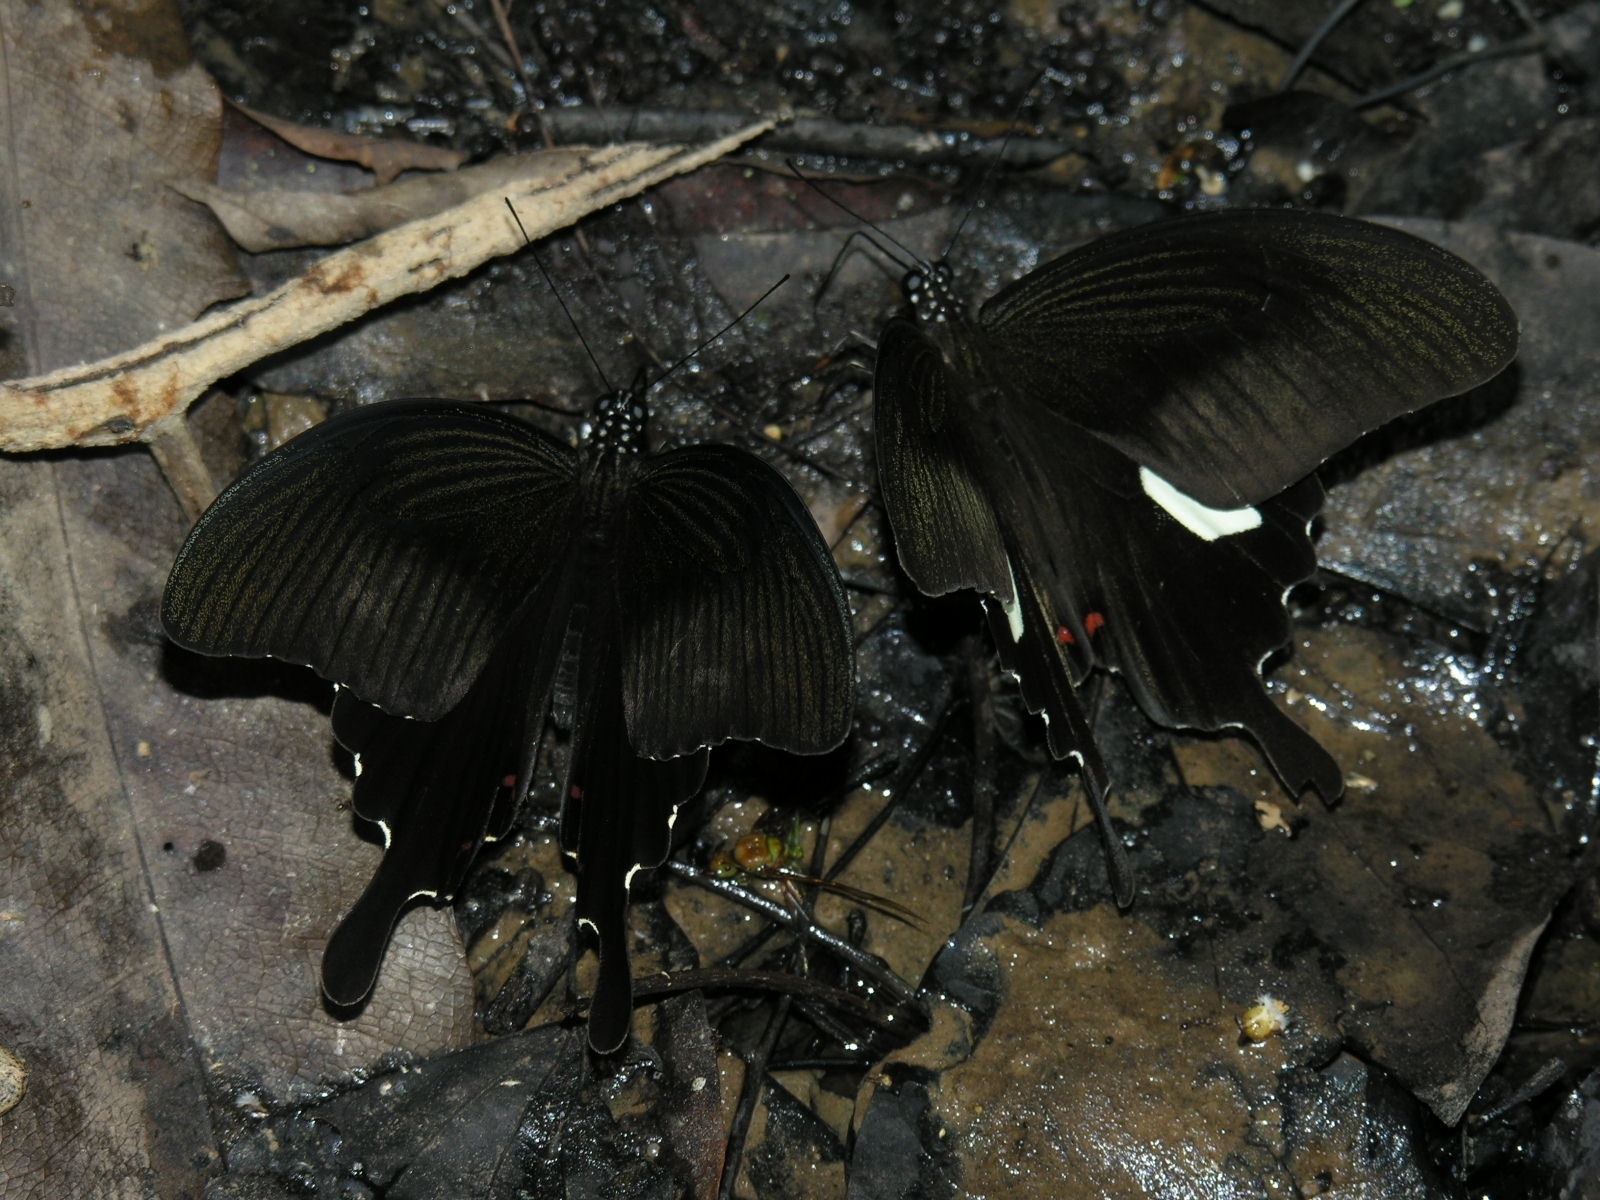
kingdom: Animalia
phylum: Arthropoda
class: Insecta
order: Lepidoptera
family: Papilionidae
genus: Papilio
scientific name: Papilio helenus
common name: Red helen
